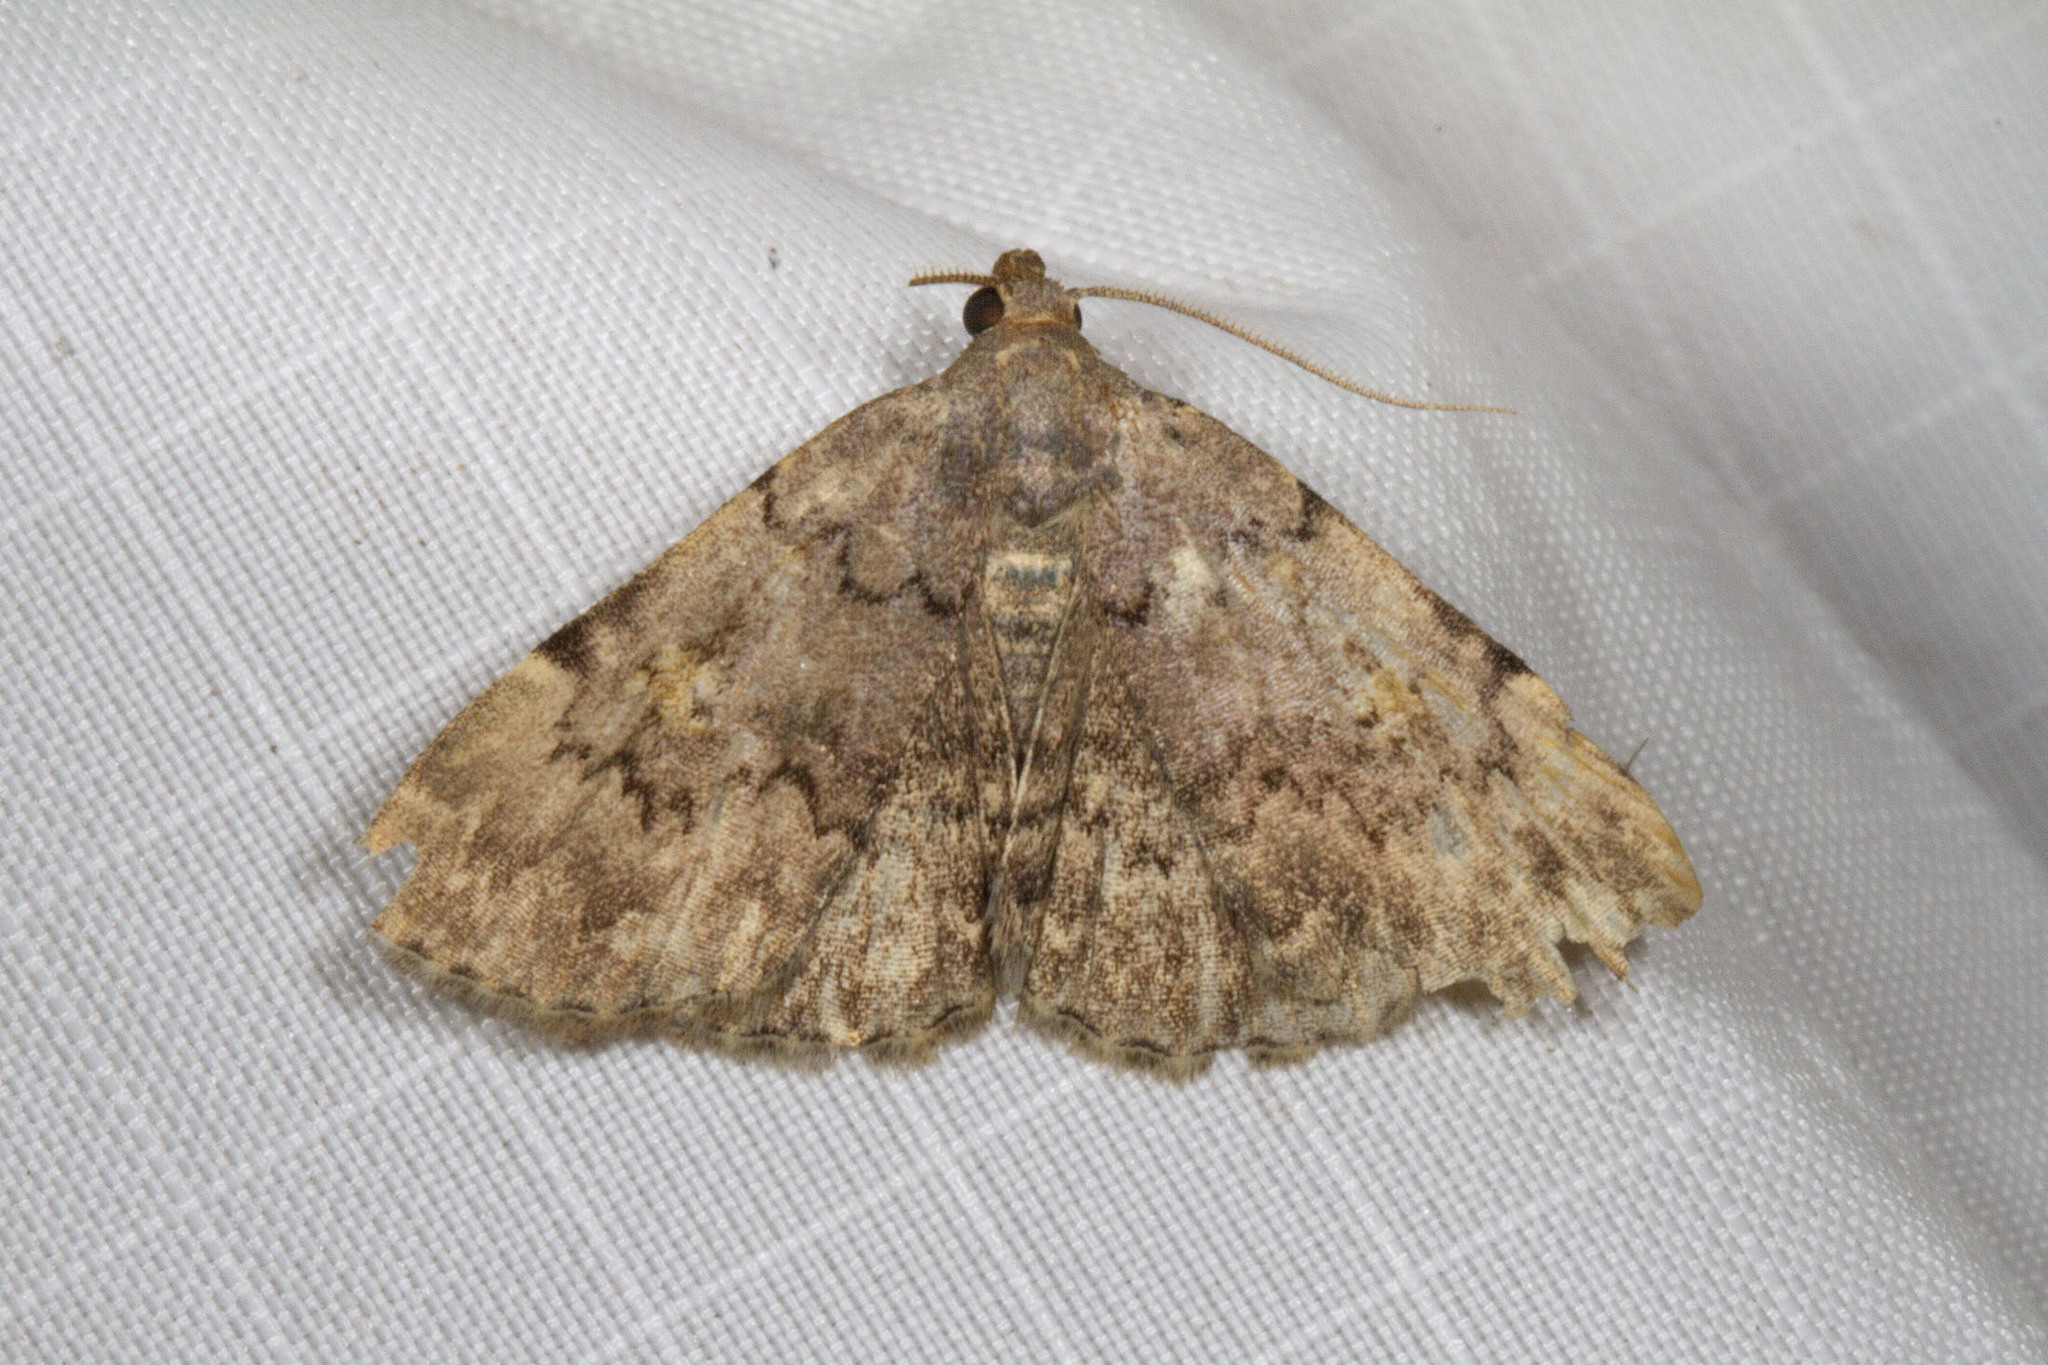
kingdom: Animalia
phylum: Arthropoda
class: Insecta
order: Lepidoptera
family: Erebidae
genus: Idia
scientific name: Idia aemula
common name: Common idia moth
